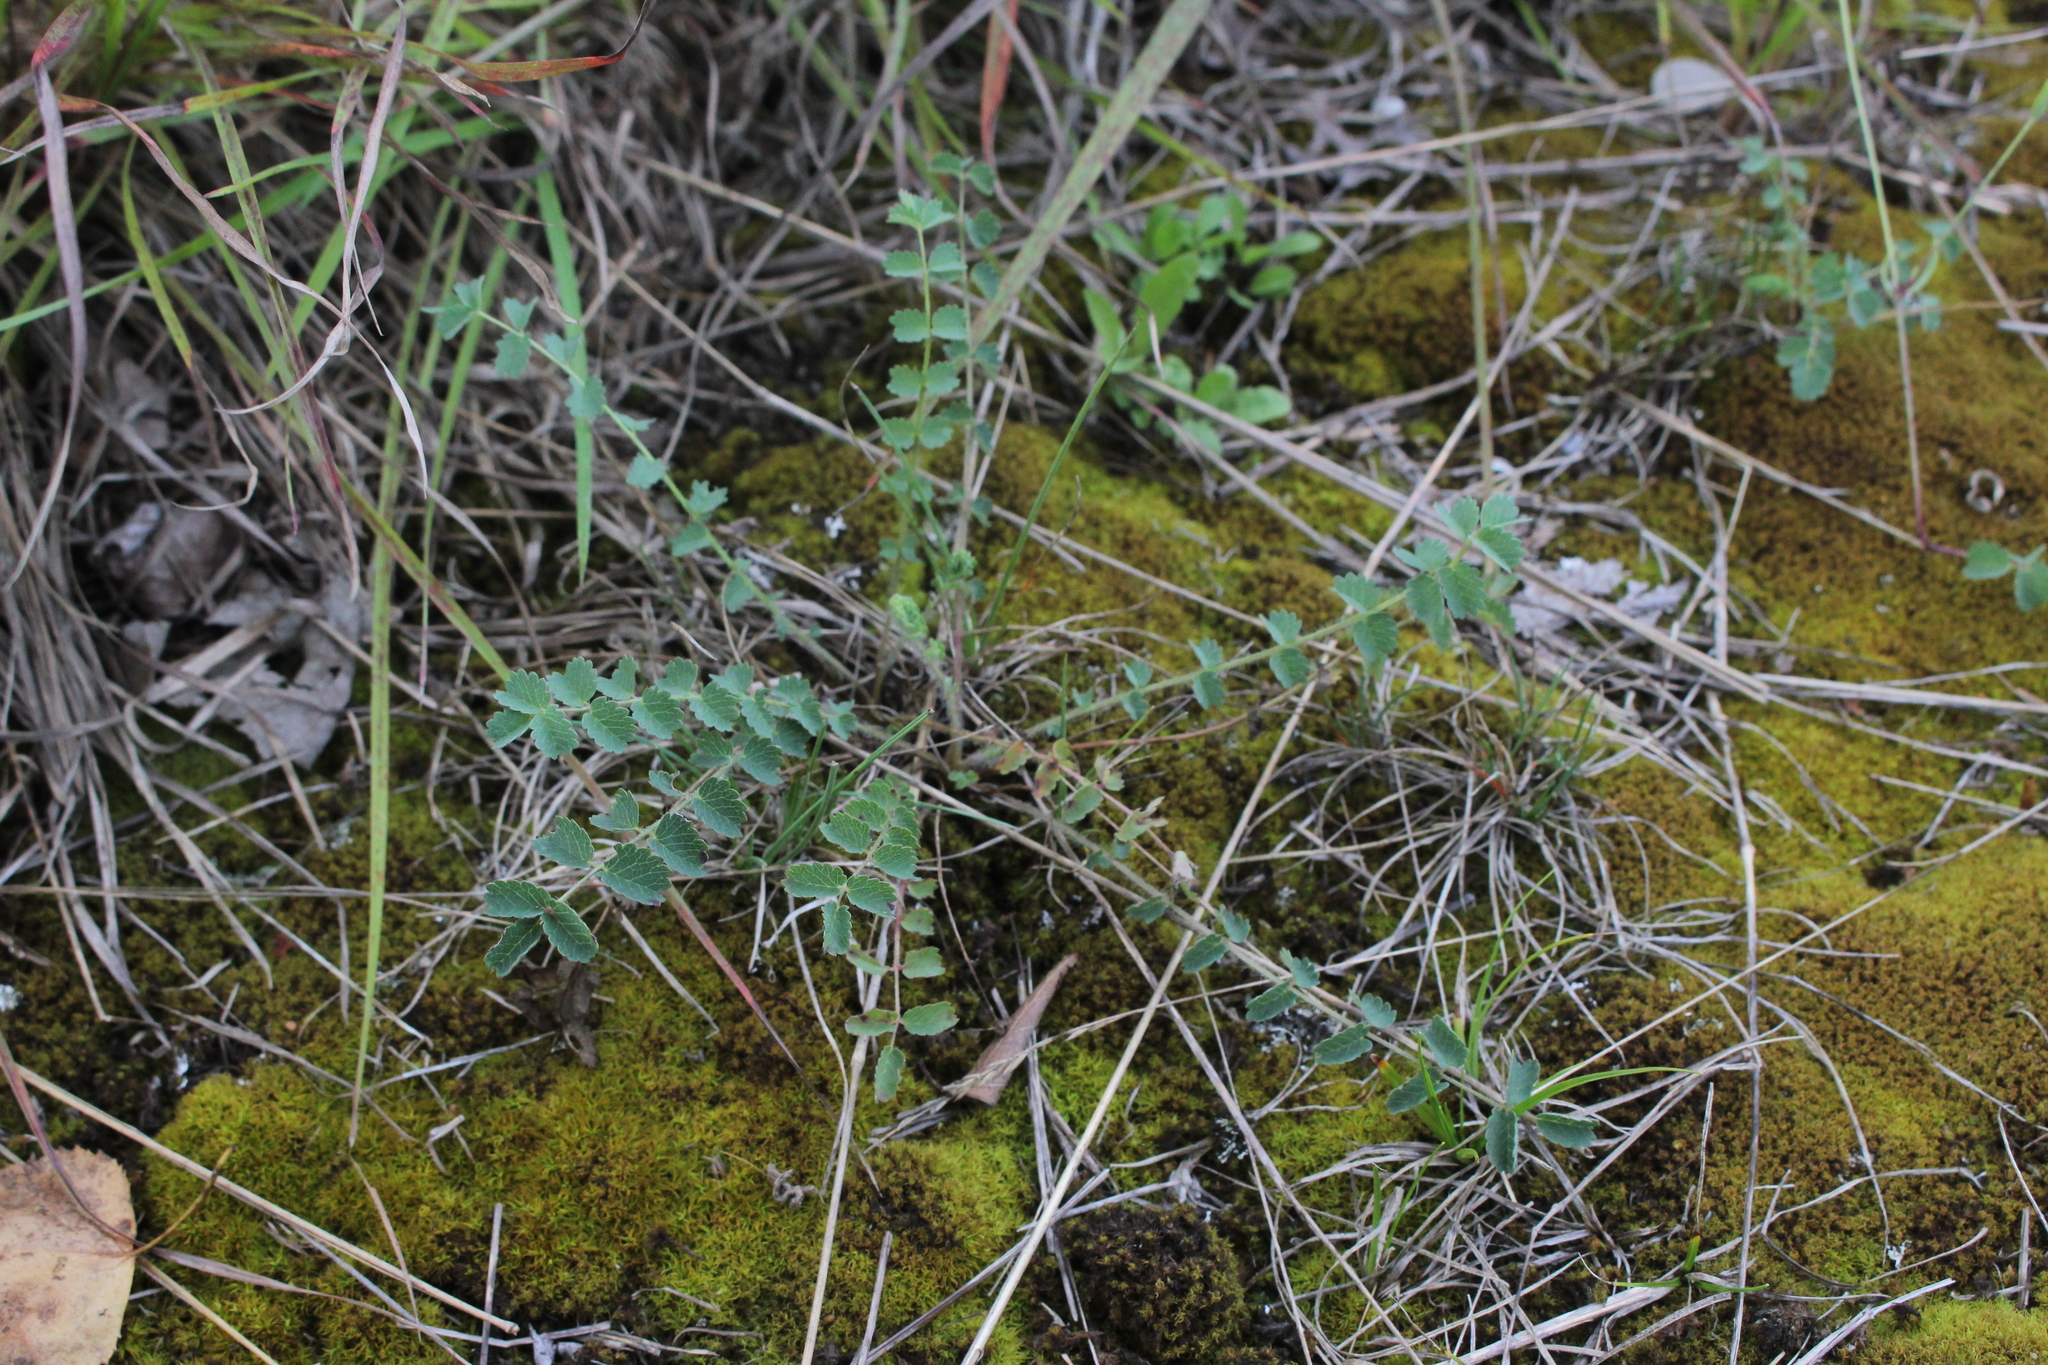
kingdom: Plantae
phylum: Tracheophyta
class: Magnoliopsida
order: Rosales
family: Rosaceae
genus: Poterium
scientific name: Poterium sanguisorba
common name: Salad burnet
